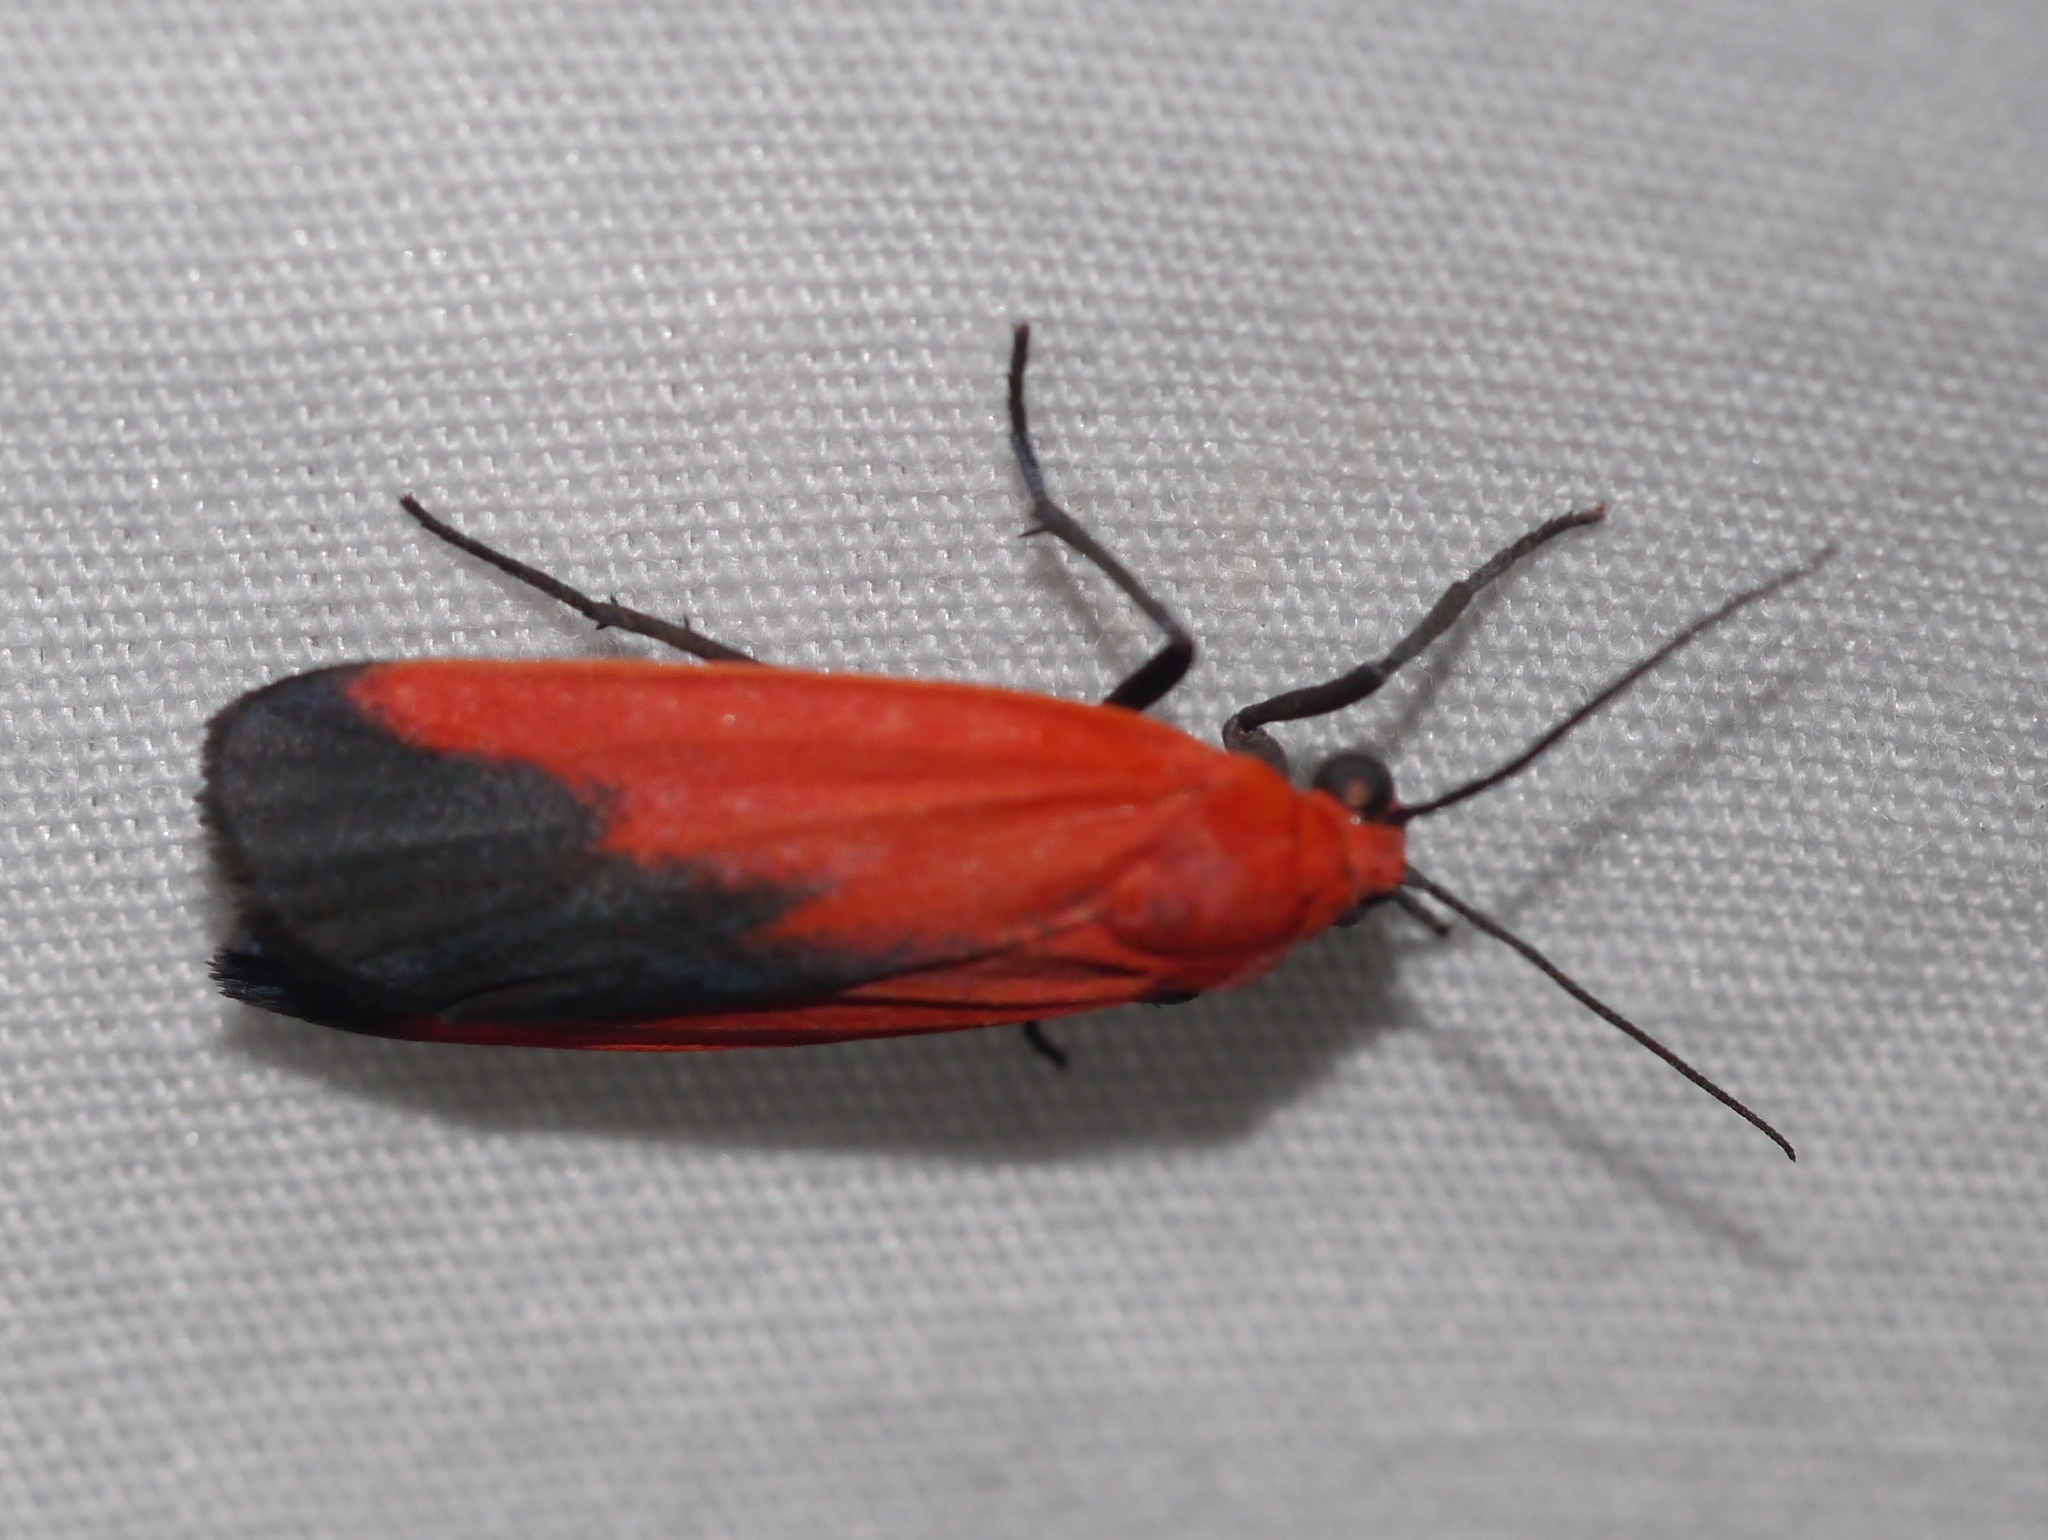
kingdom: Animalia
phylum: Arthropoda
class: Insecta
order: Lepidoptera
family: Erebidae
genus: Ptychoglene
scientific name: Ptychoglene coccinea
